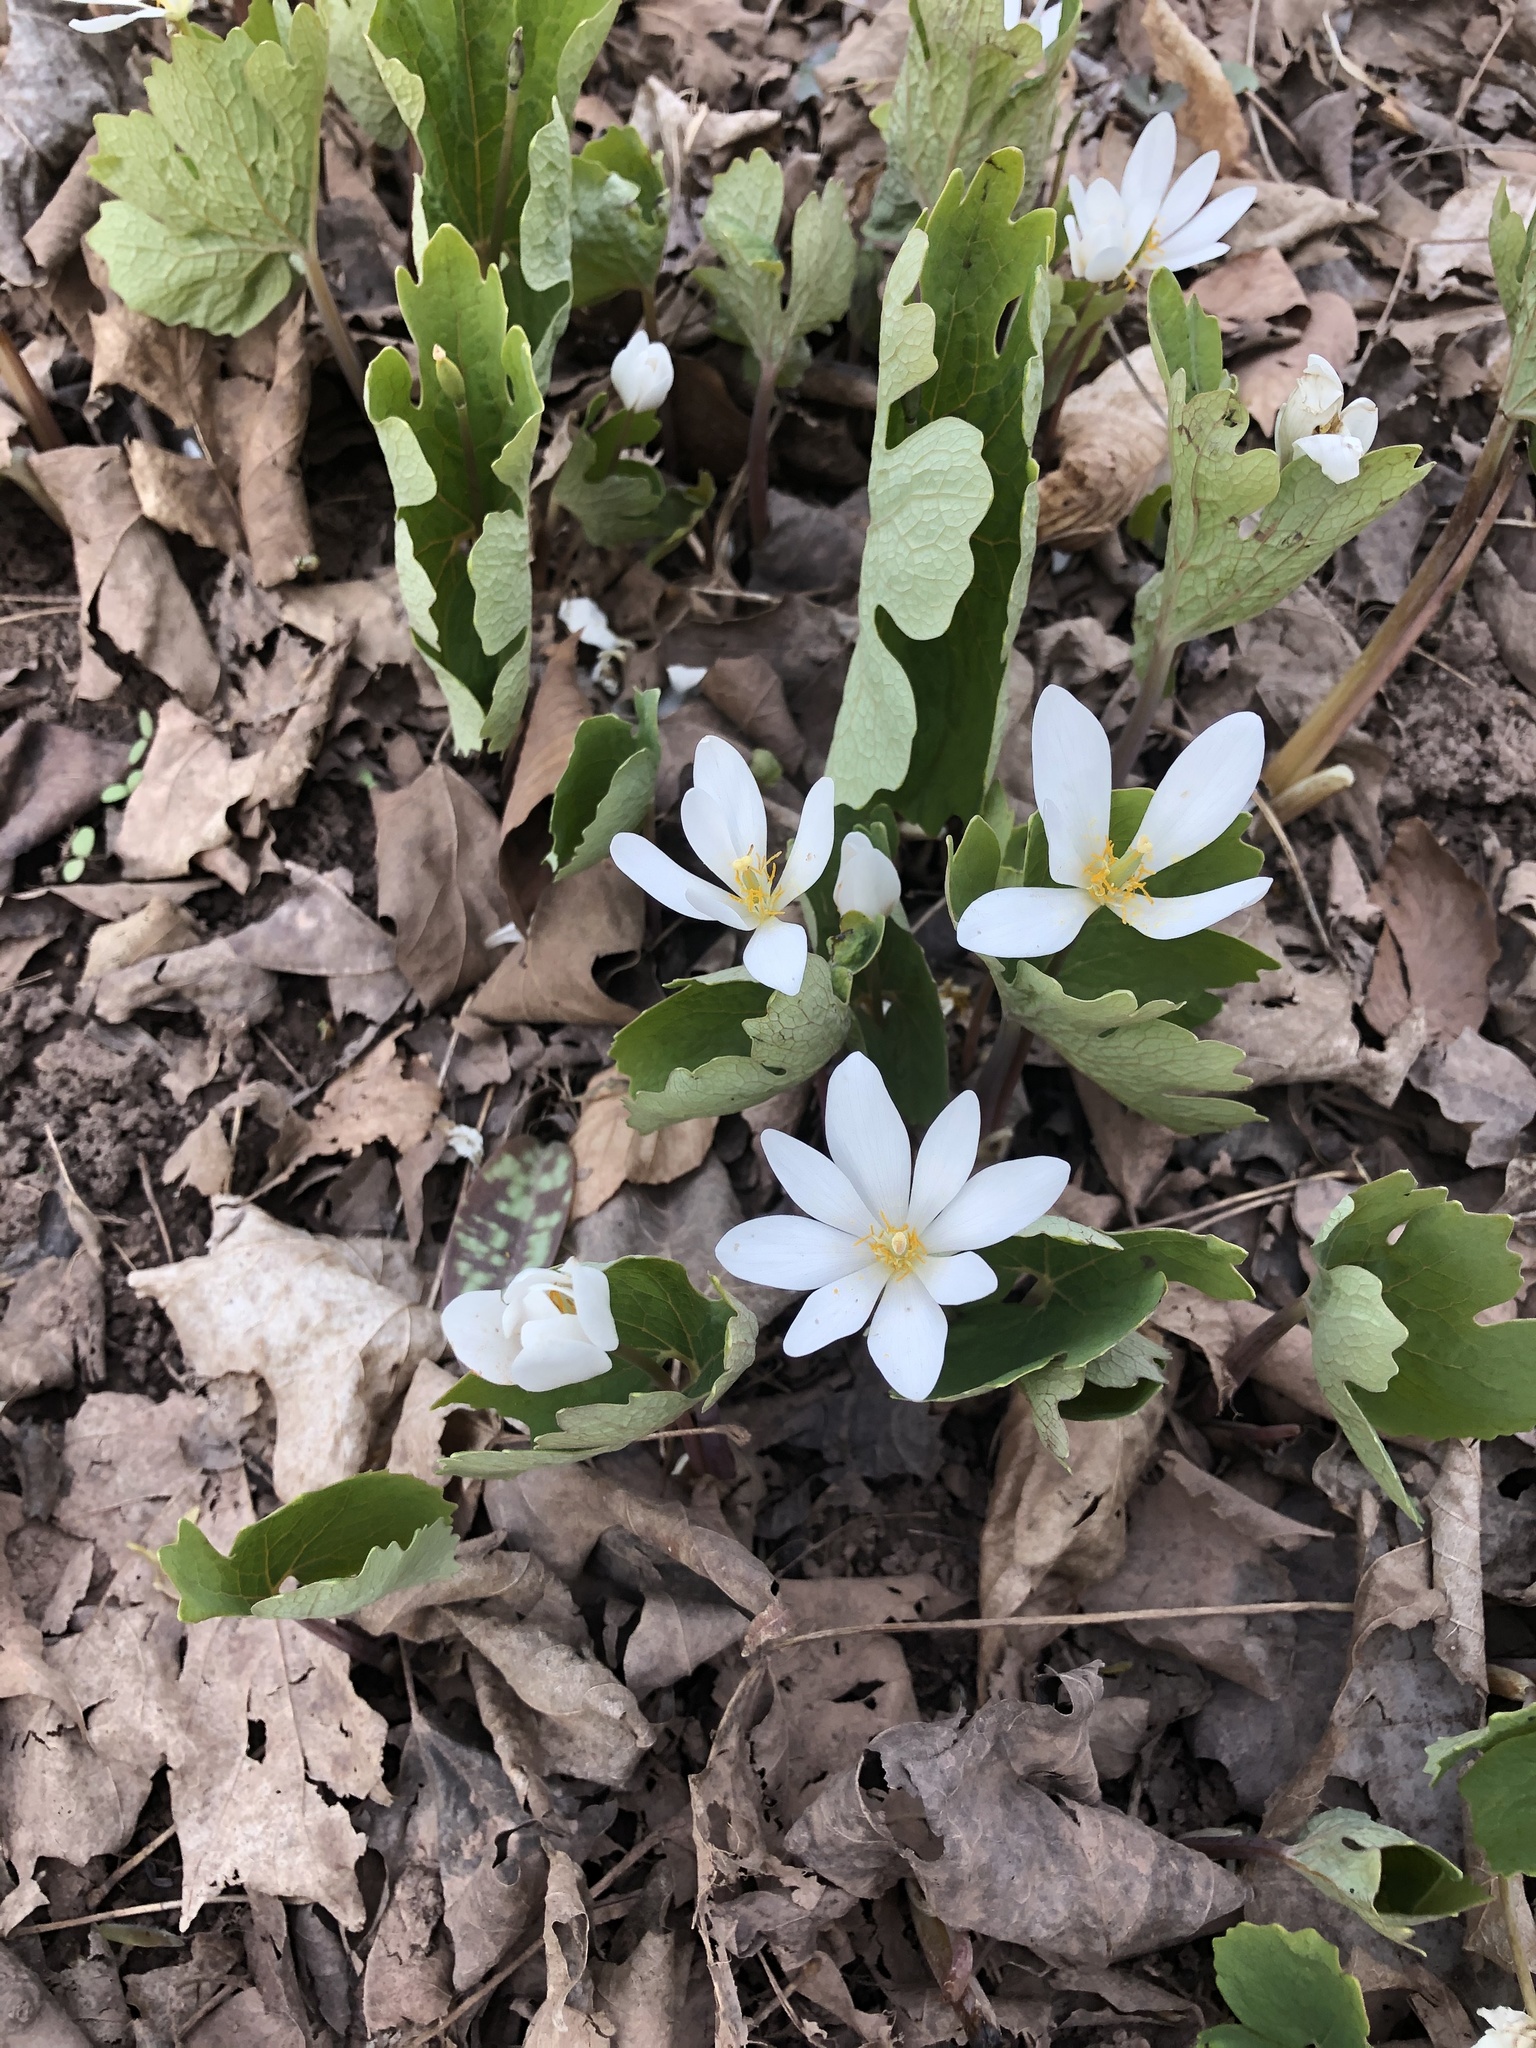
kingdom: Plantae
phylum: Tracheophyta
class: Magnoliopsida
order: Ranunculales
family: Papaveraceae
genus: Sanguinaria
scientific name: Sanguinaria canadensis
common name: Bloodroot
